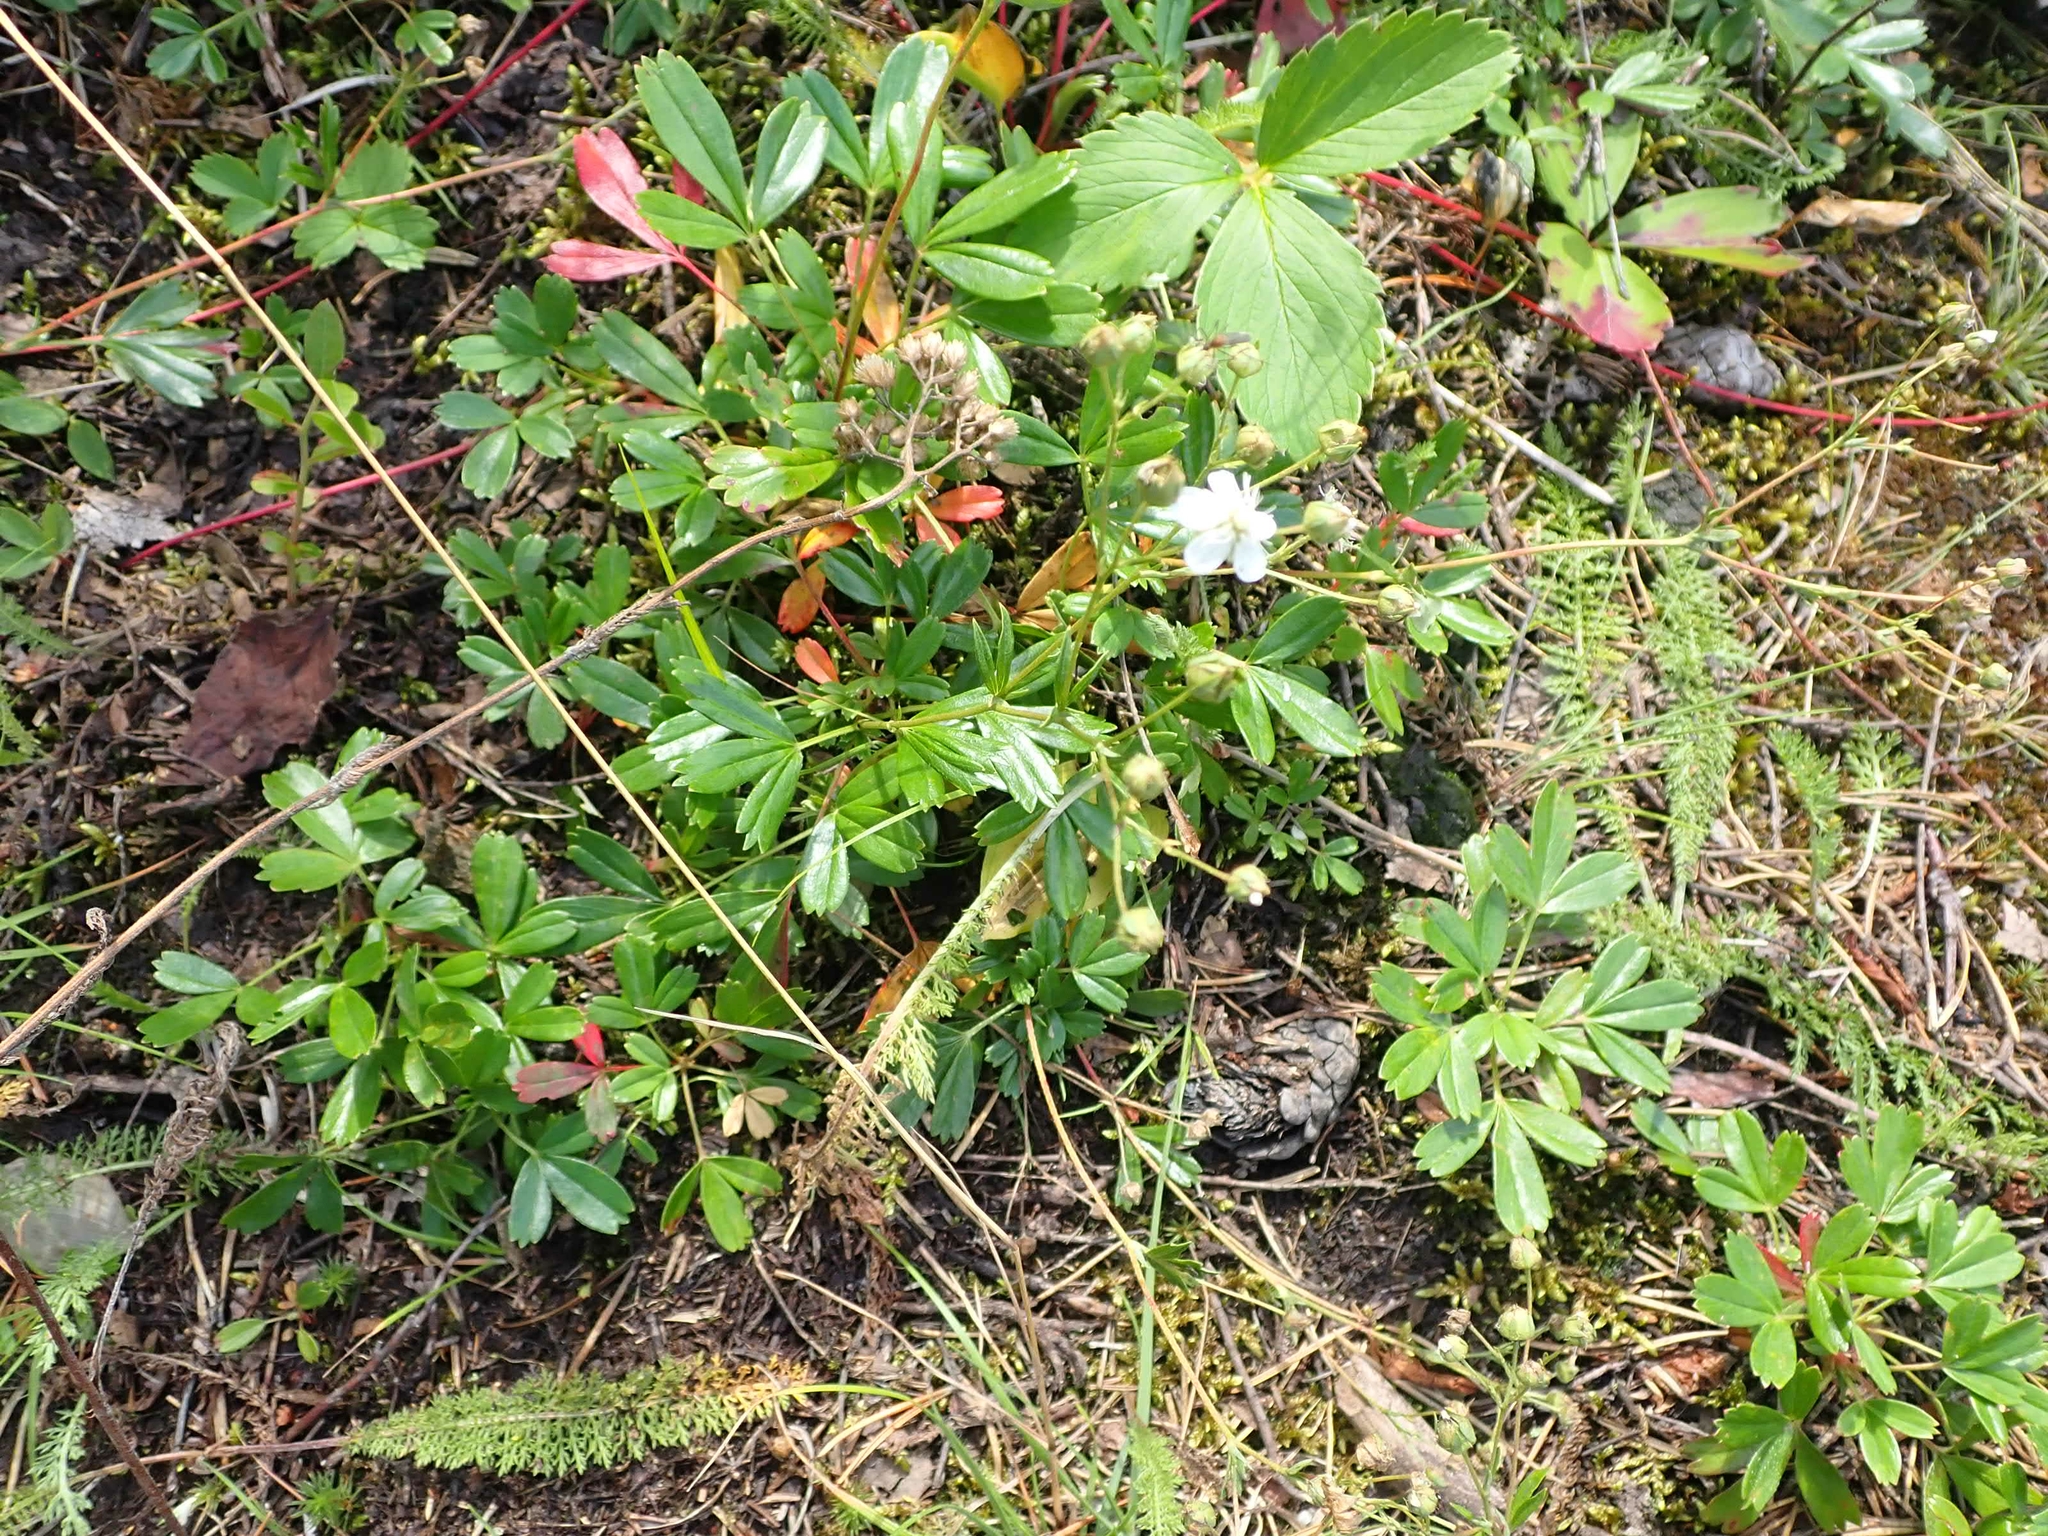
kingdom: Plantae
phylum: Tracheophyta
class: Magnoliopsida
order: Rosales
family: Rosaceae
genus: Sibbaldia
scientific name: Sibbaldia tridentata
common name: Three-toothed cinquefoil
